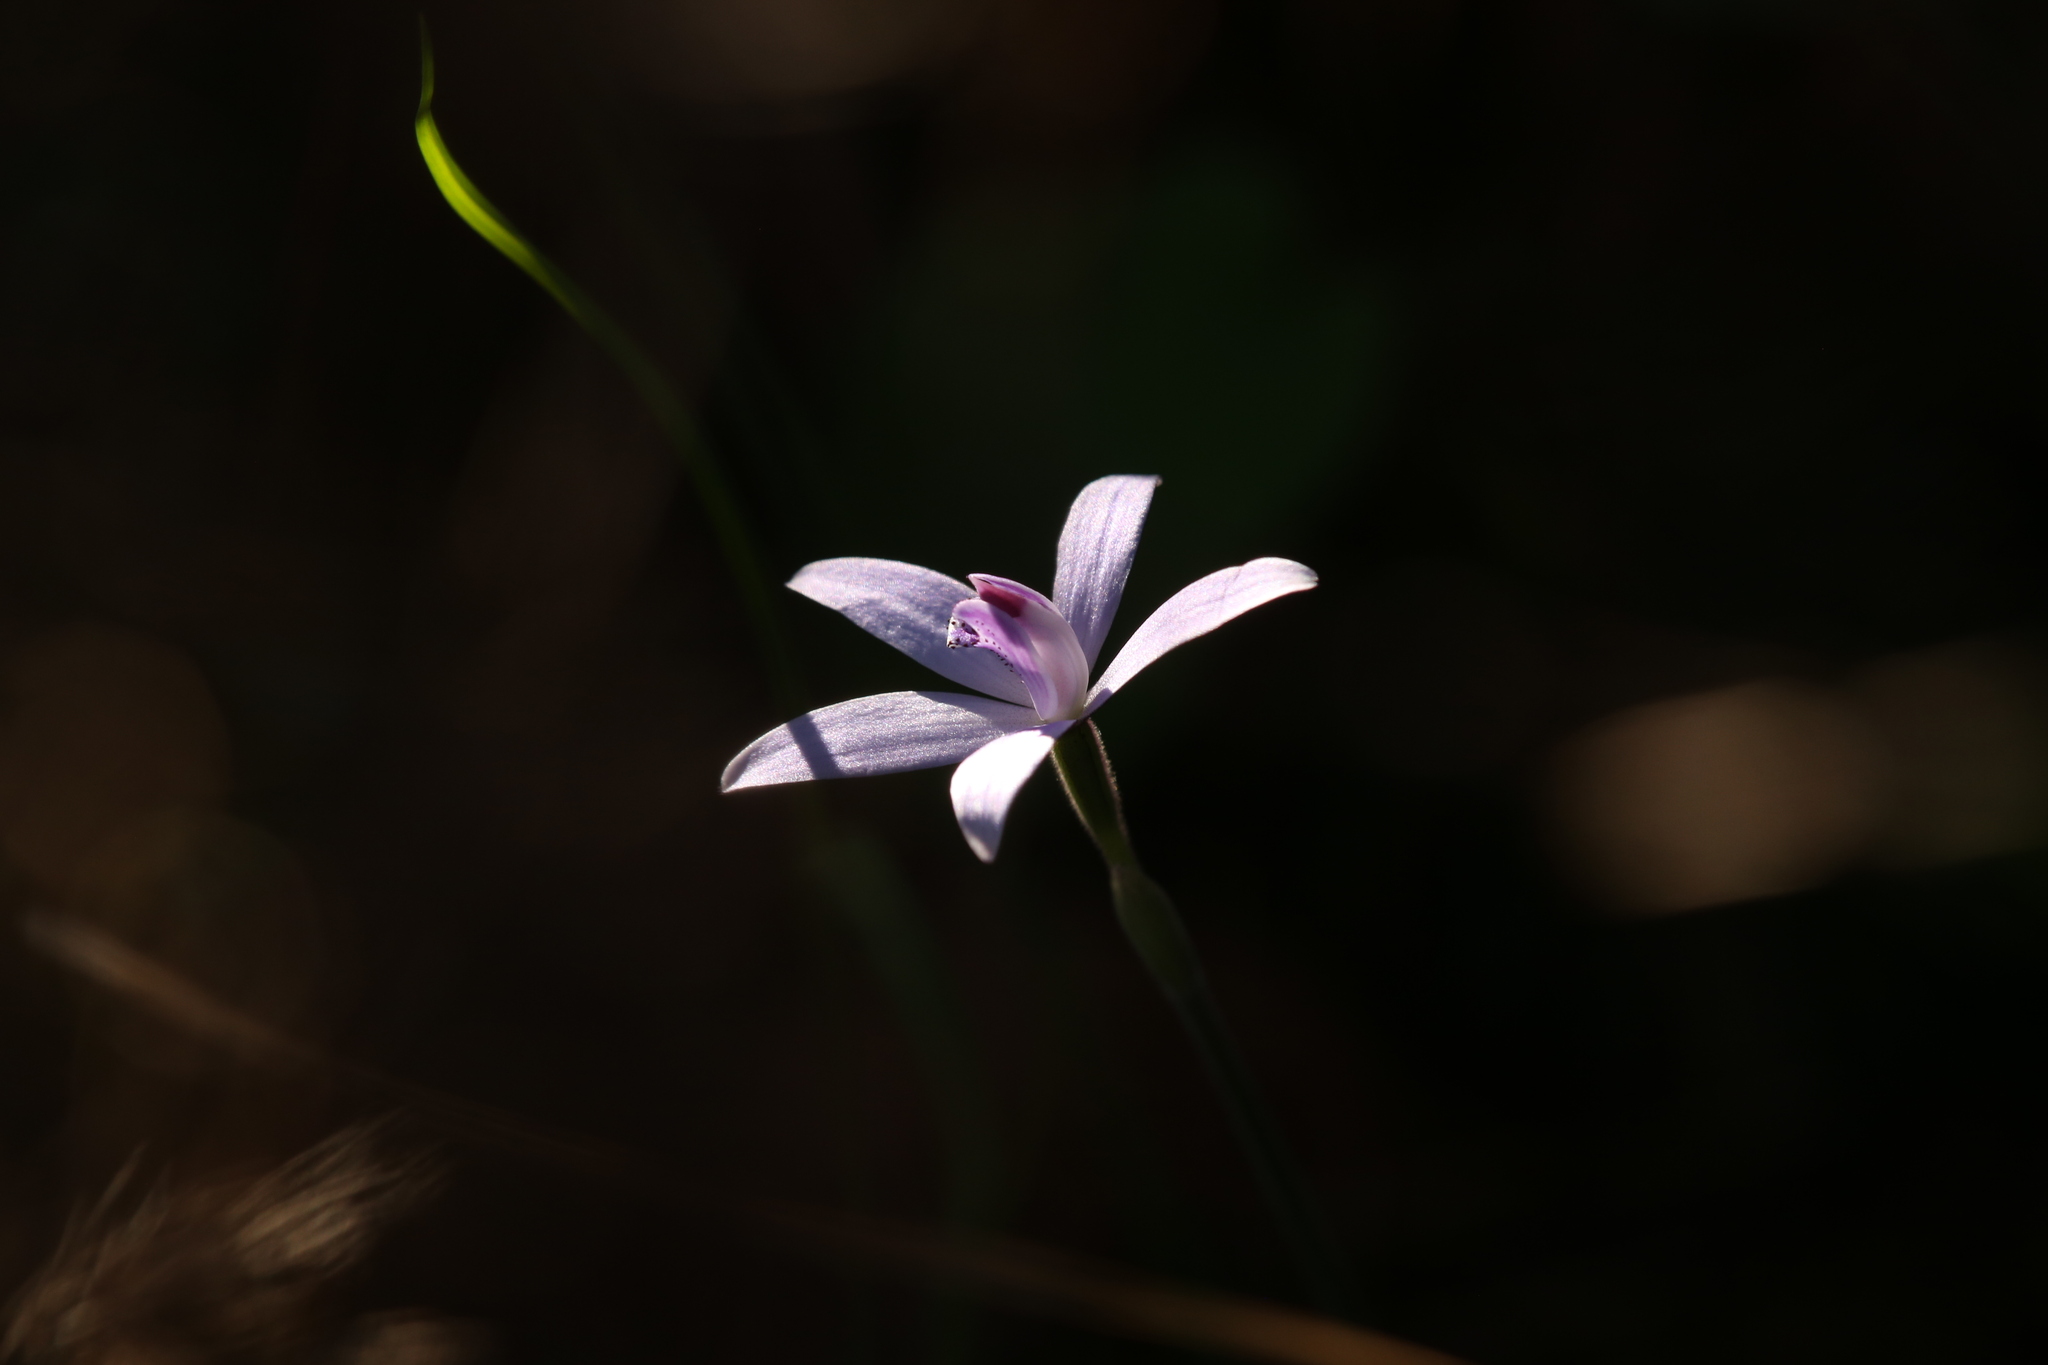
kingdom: Plantae
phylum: Tracheophyta
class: Liliopsida
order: Asparagales
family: Orchidaceae
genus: Caladenia
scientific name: Caladenia sericea
